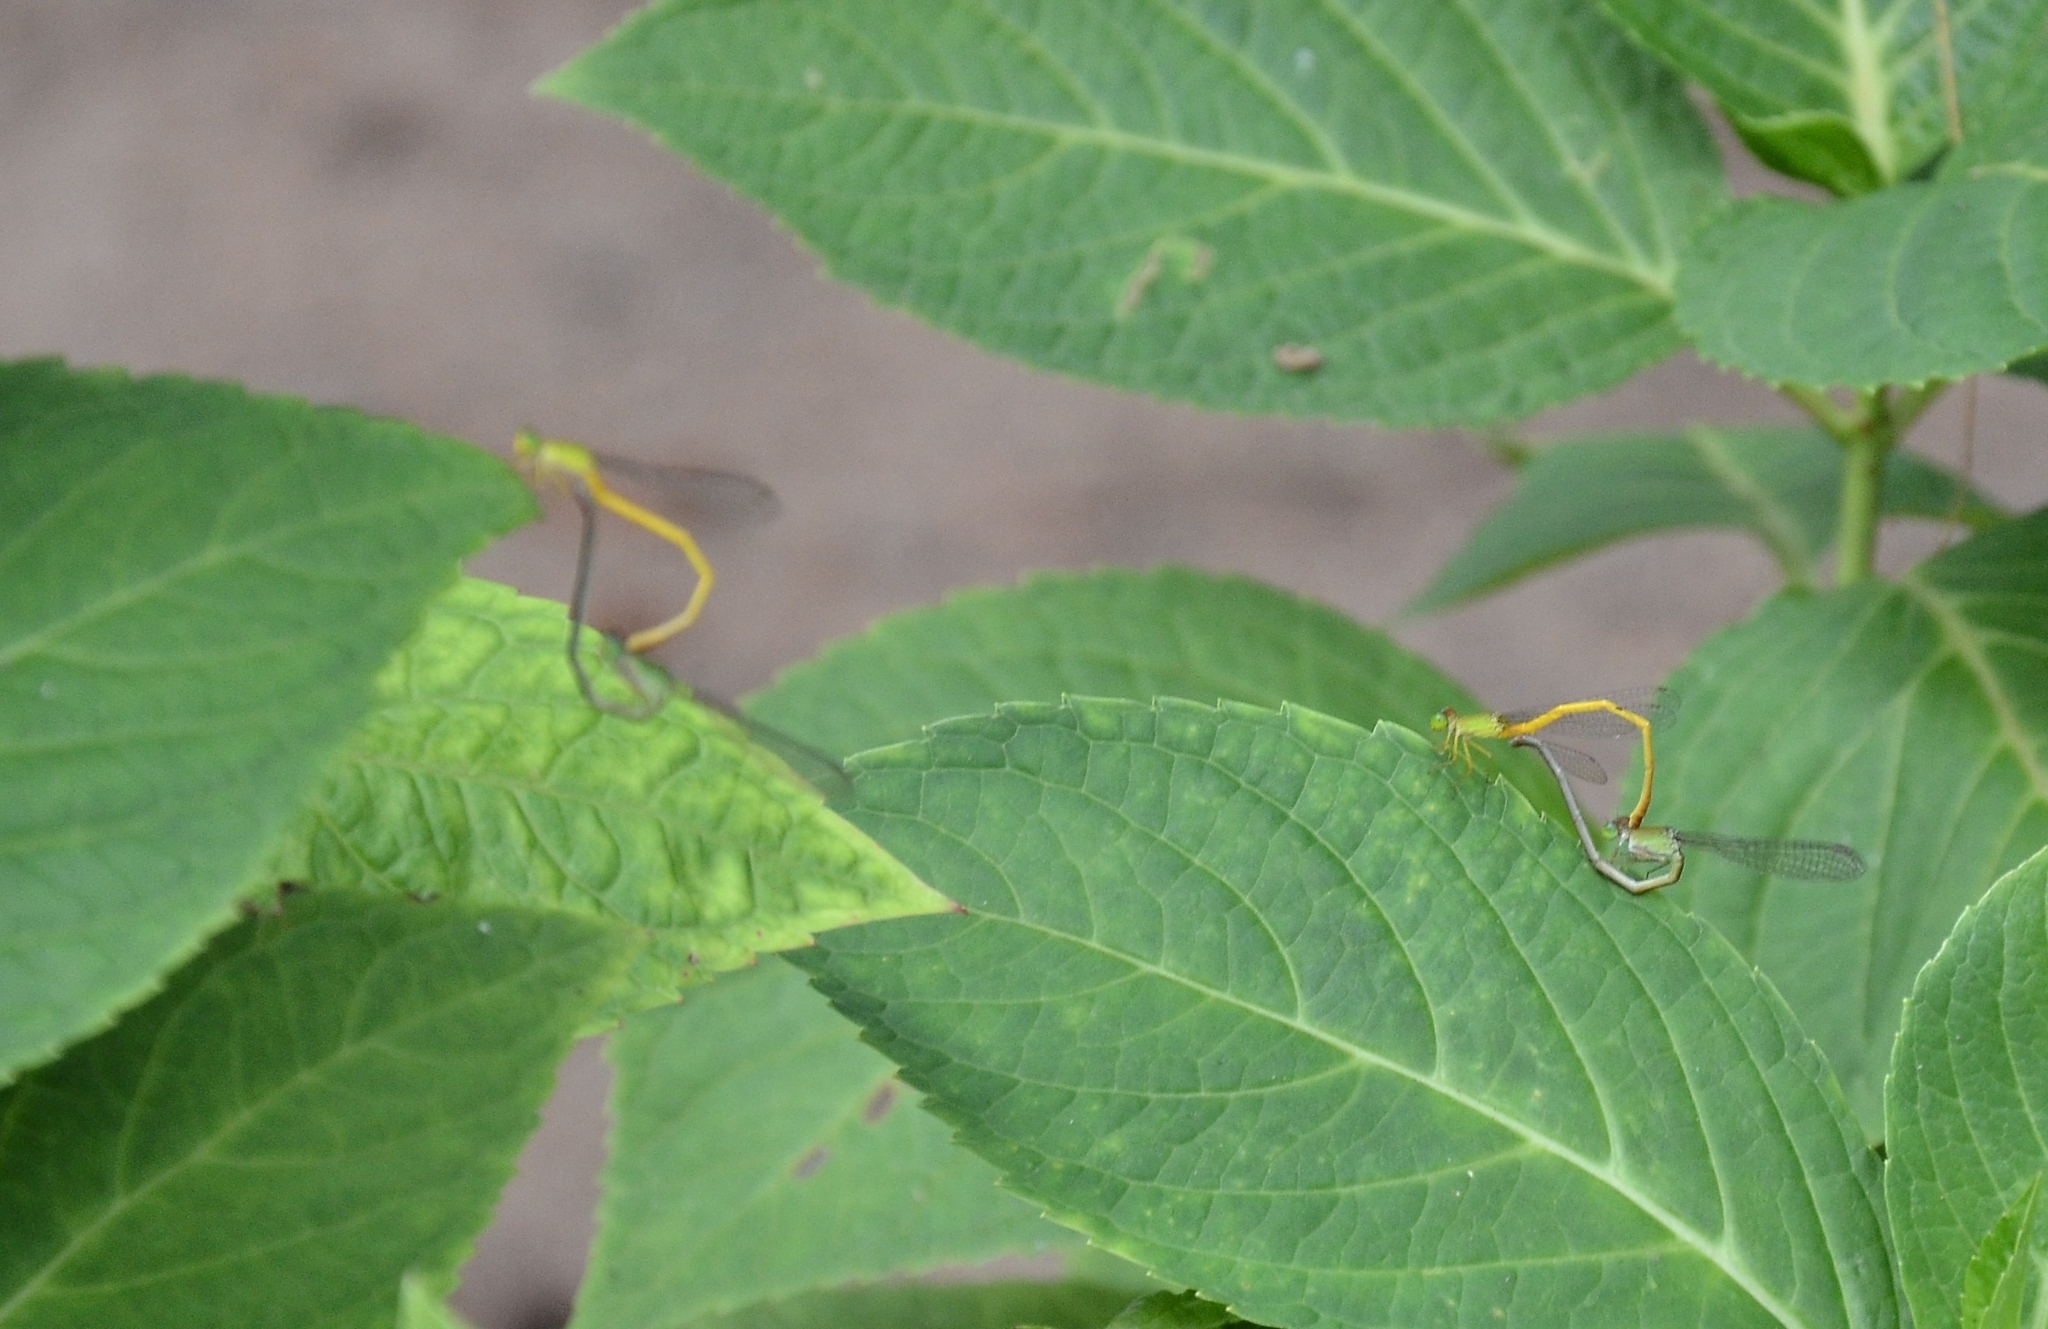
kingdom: Animalia
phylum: Arthropoda
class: Insecta
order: Odonata
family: Coenagrionidae
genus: Ceriagrion
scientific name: Ceriagrion coromandelianum
